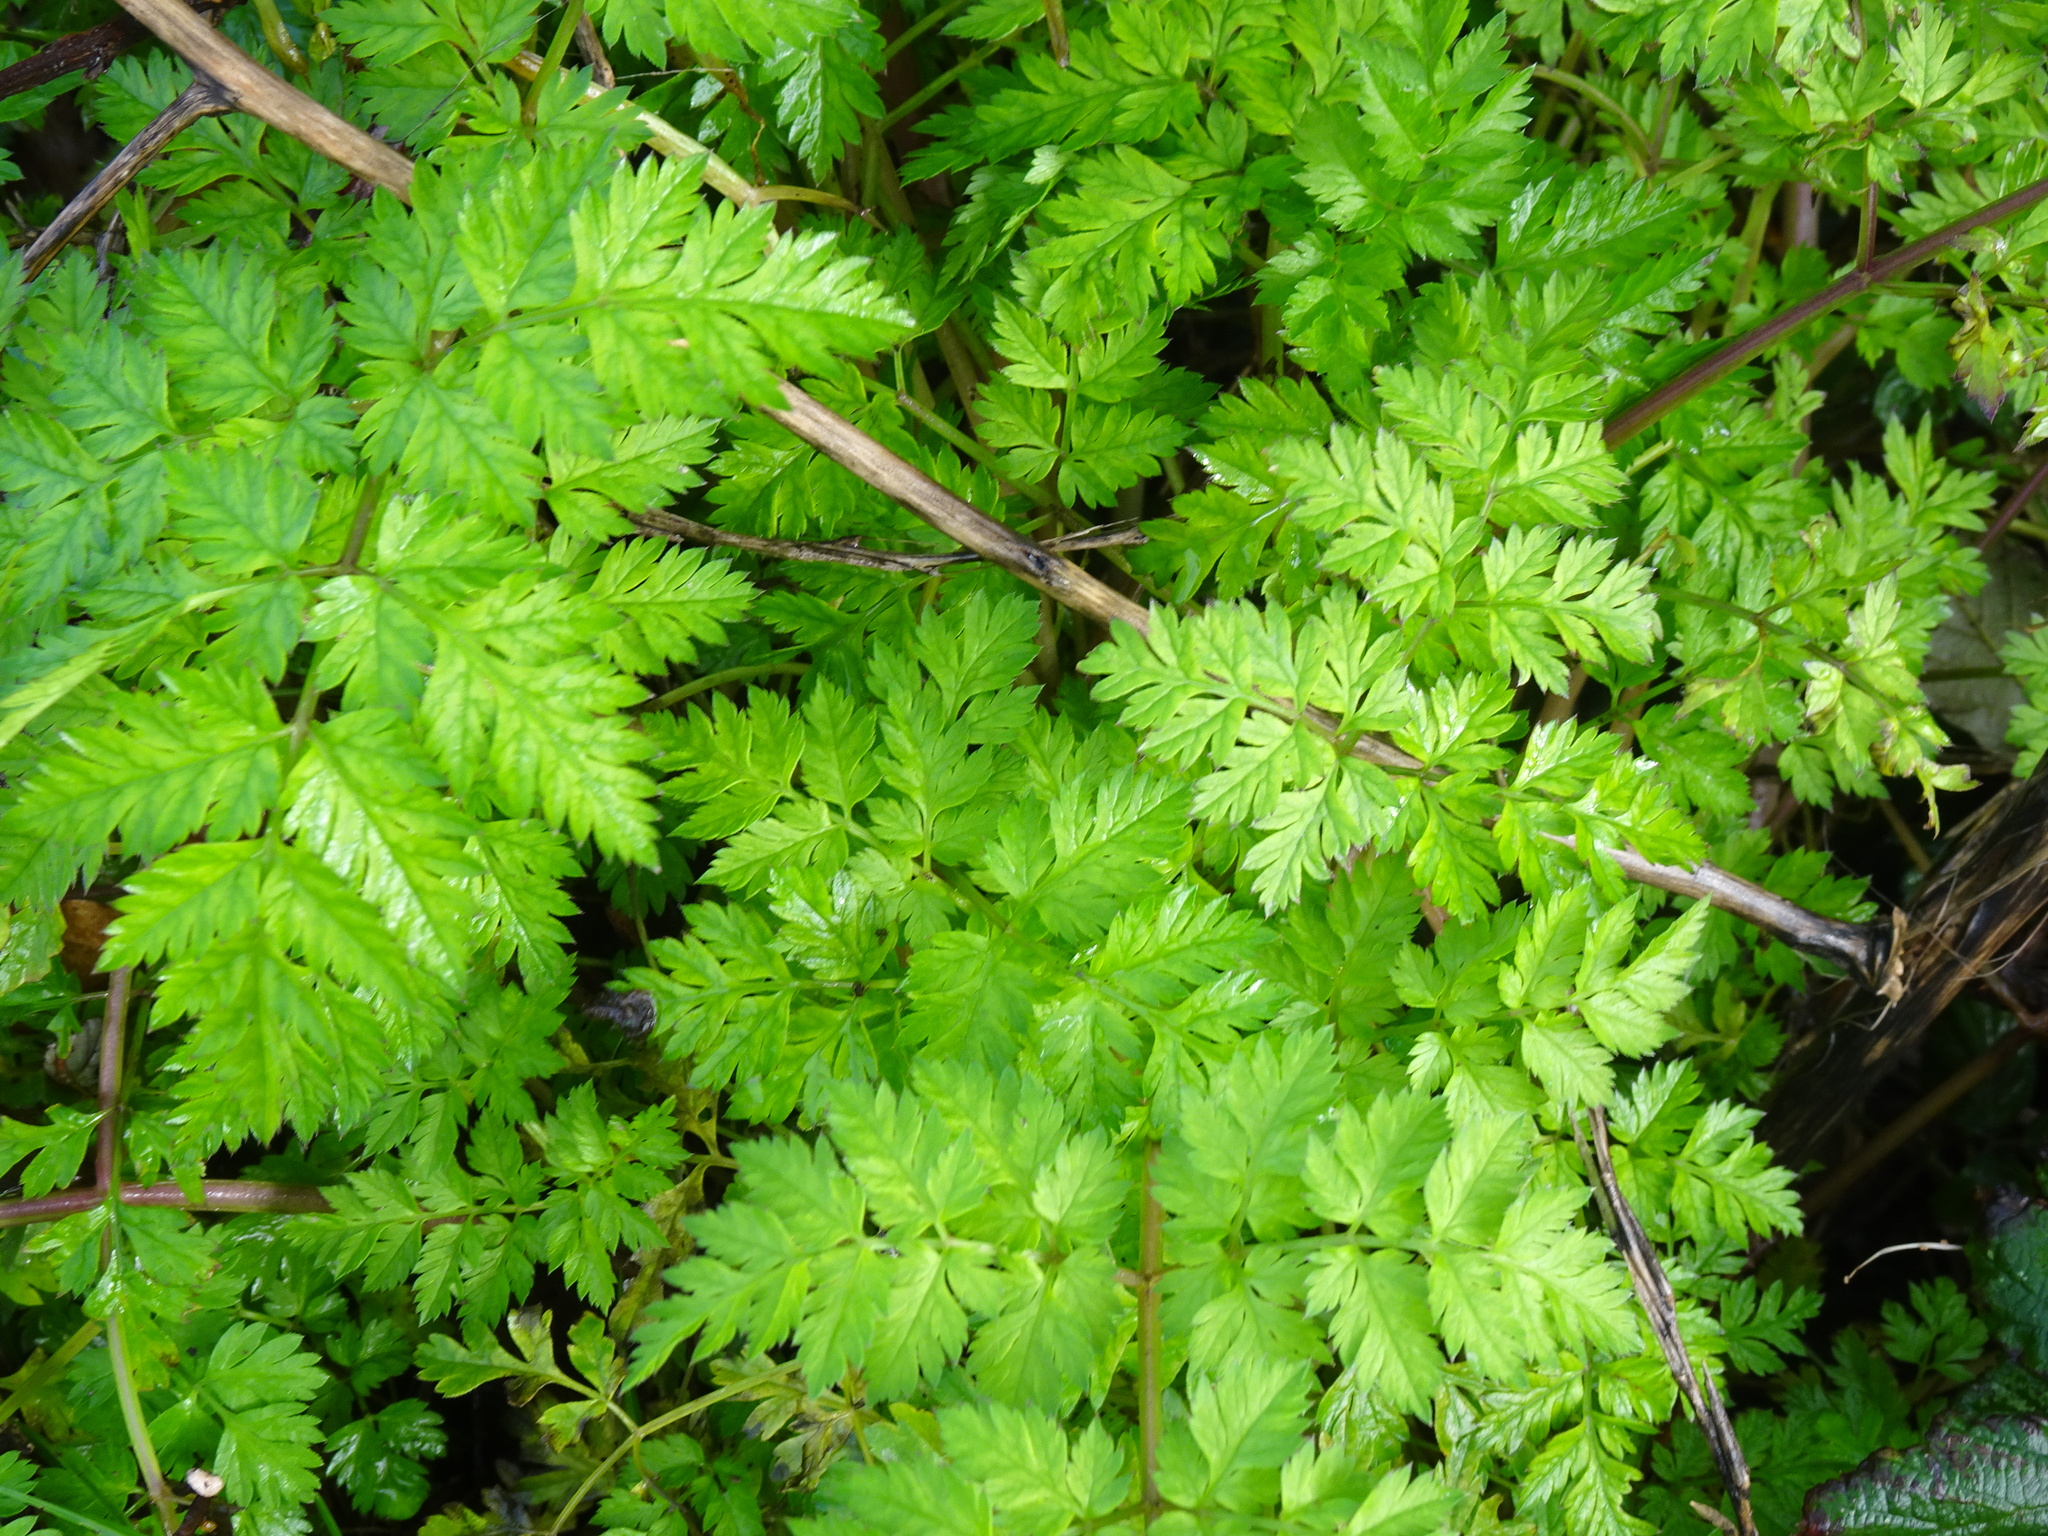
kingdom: Plantae
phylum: Tracheophyta
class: Magnoliopsida
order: Apiales
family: Apiaceae
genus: Anthriscus
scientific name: Anthriscus sylvestris
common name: Cow parsley
